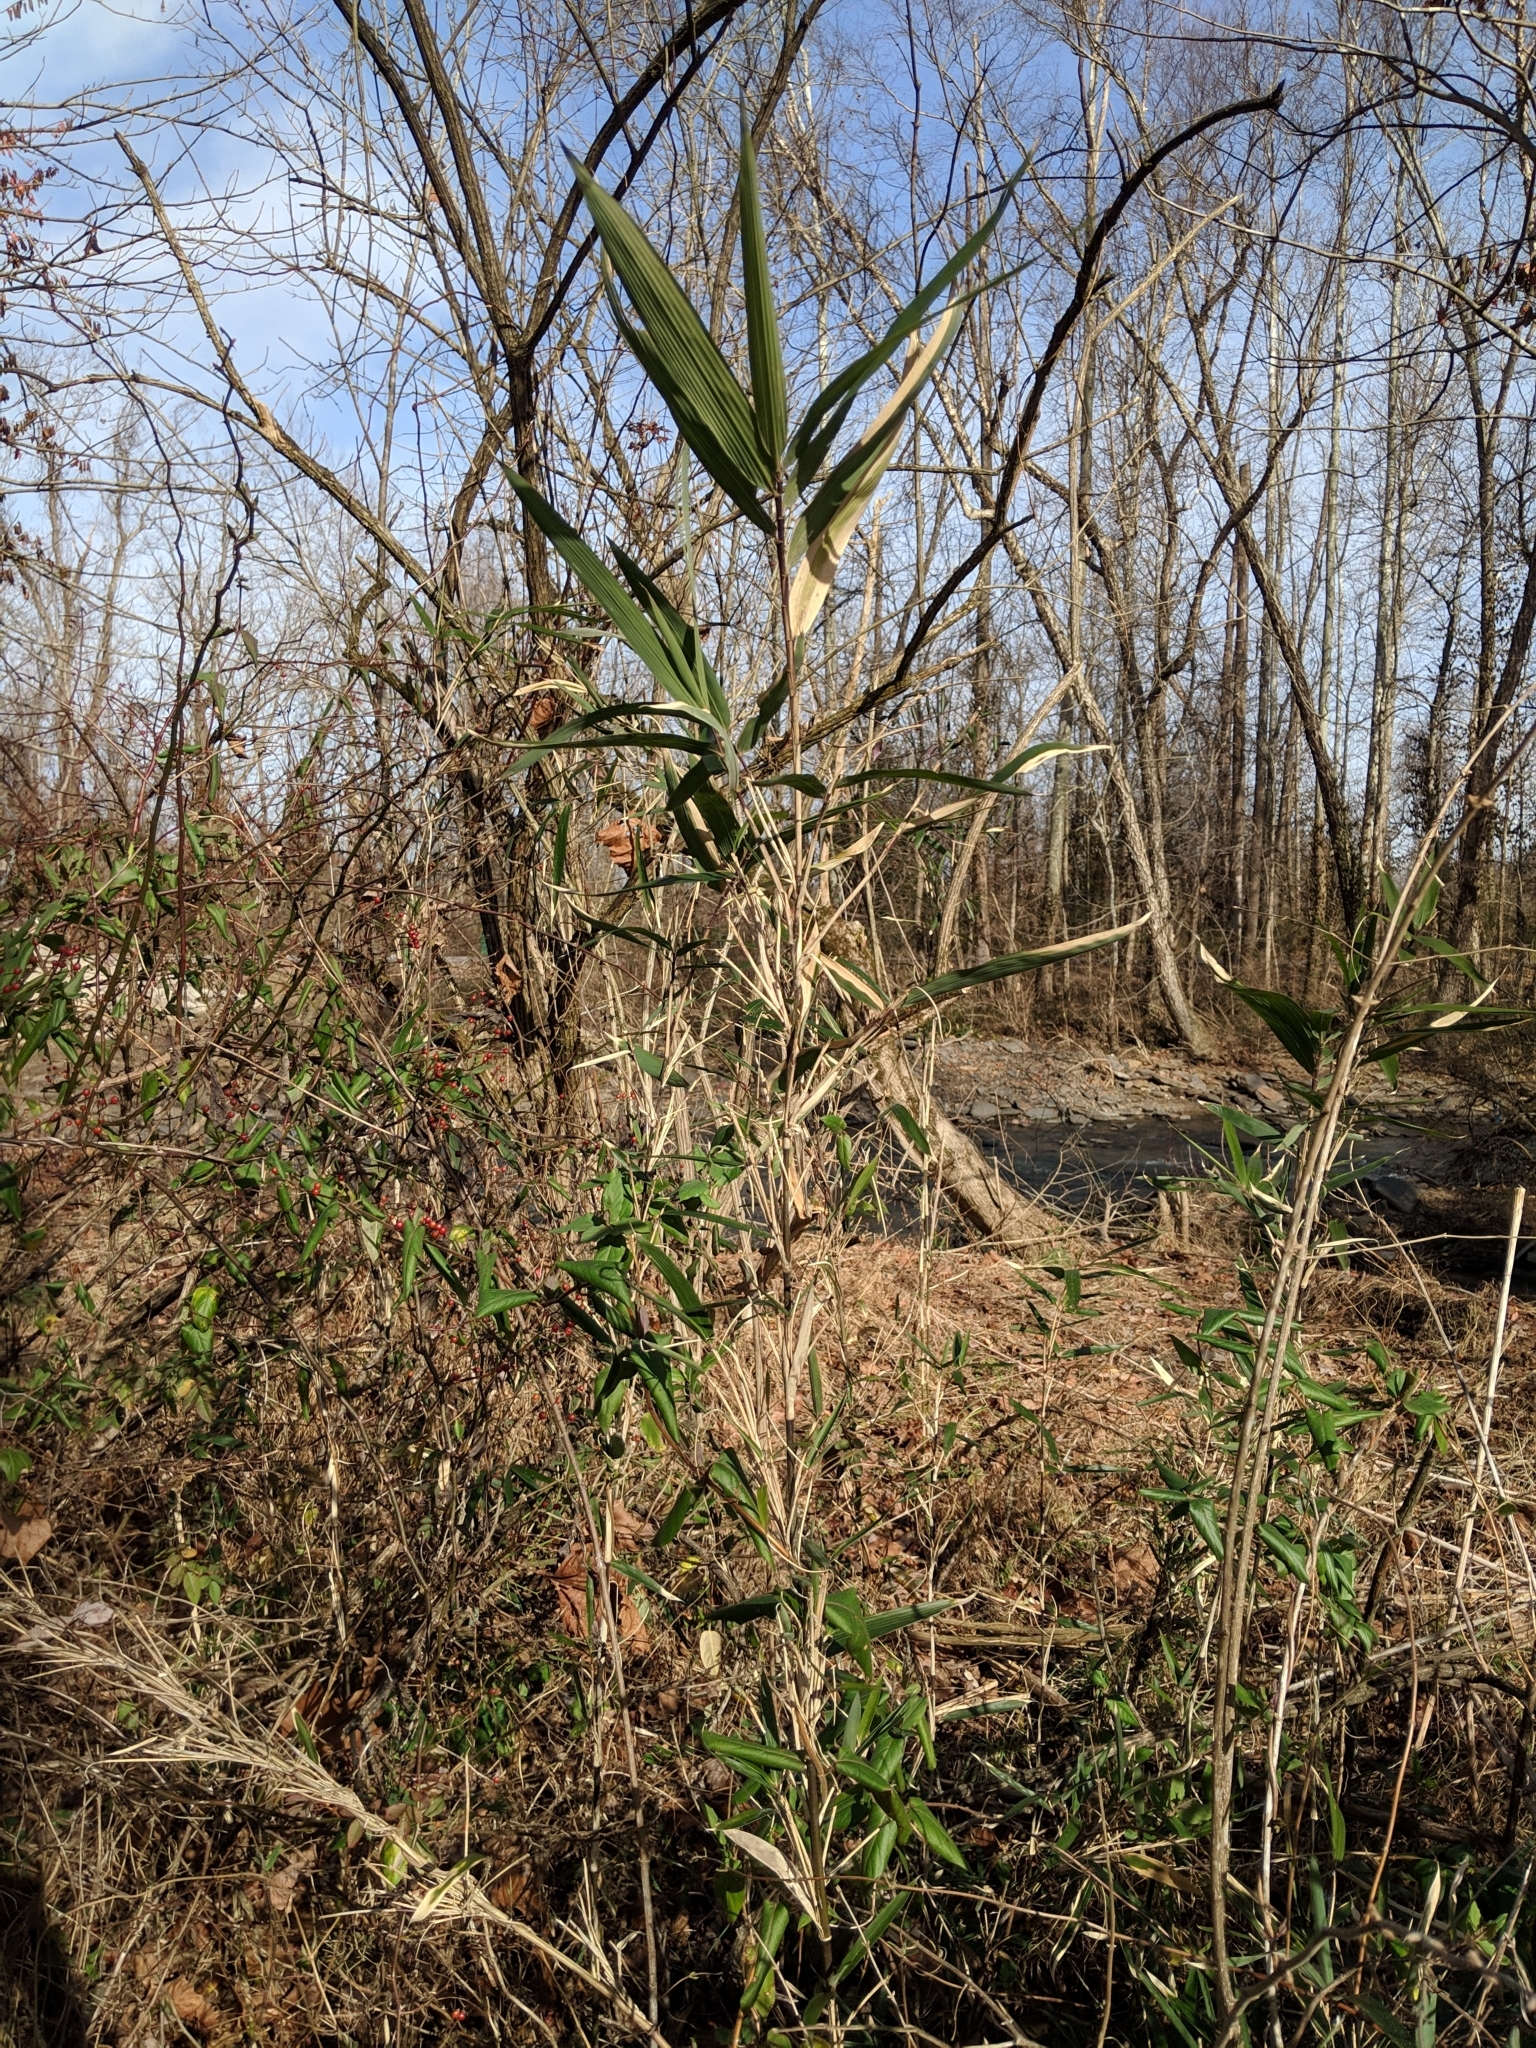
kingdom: Plantae
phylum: Tracheophyta
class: Liliopsida
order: Poales
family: Poaceae
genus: Arundinaria
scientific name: Arundinaria gigantea
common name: Giant cane
